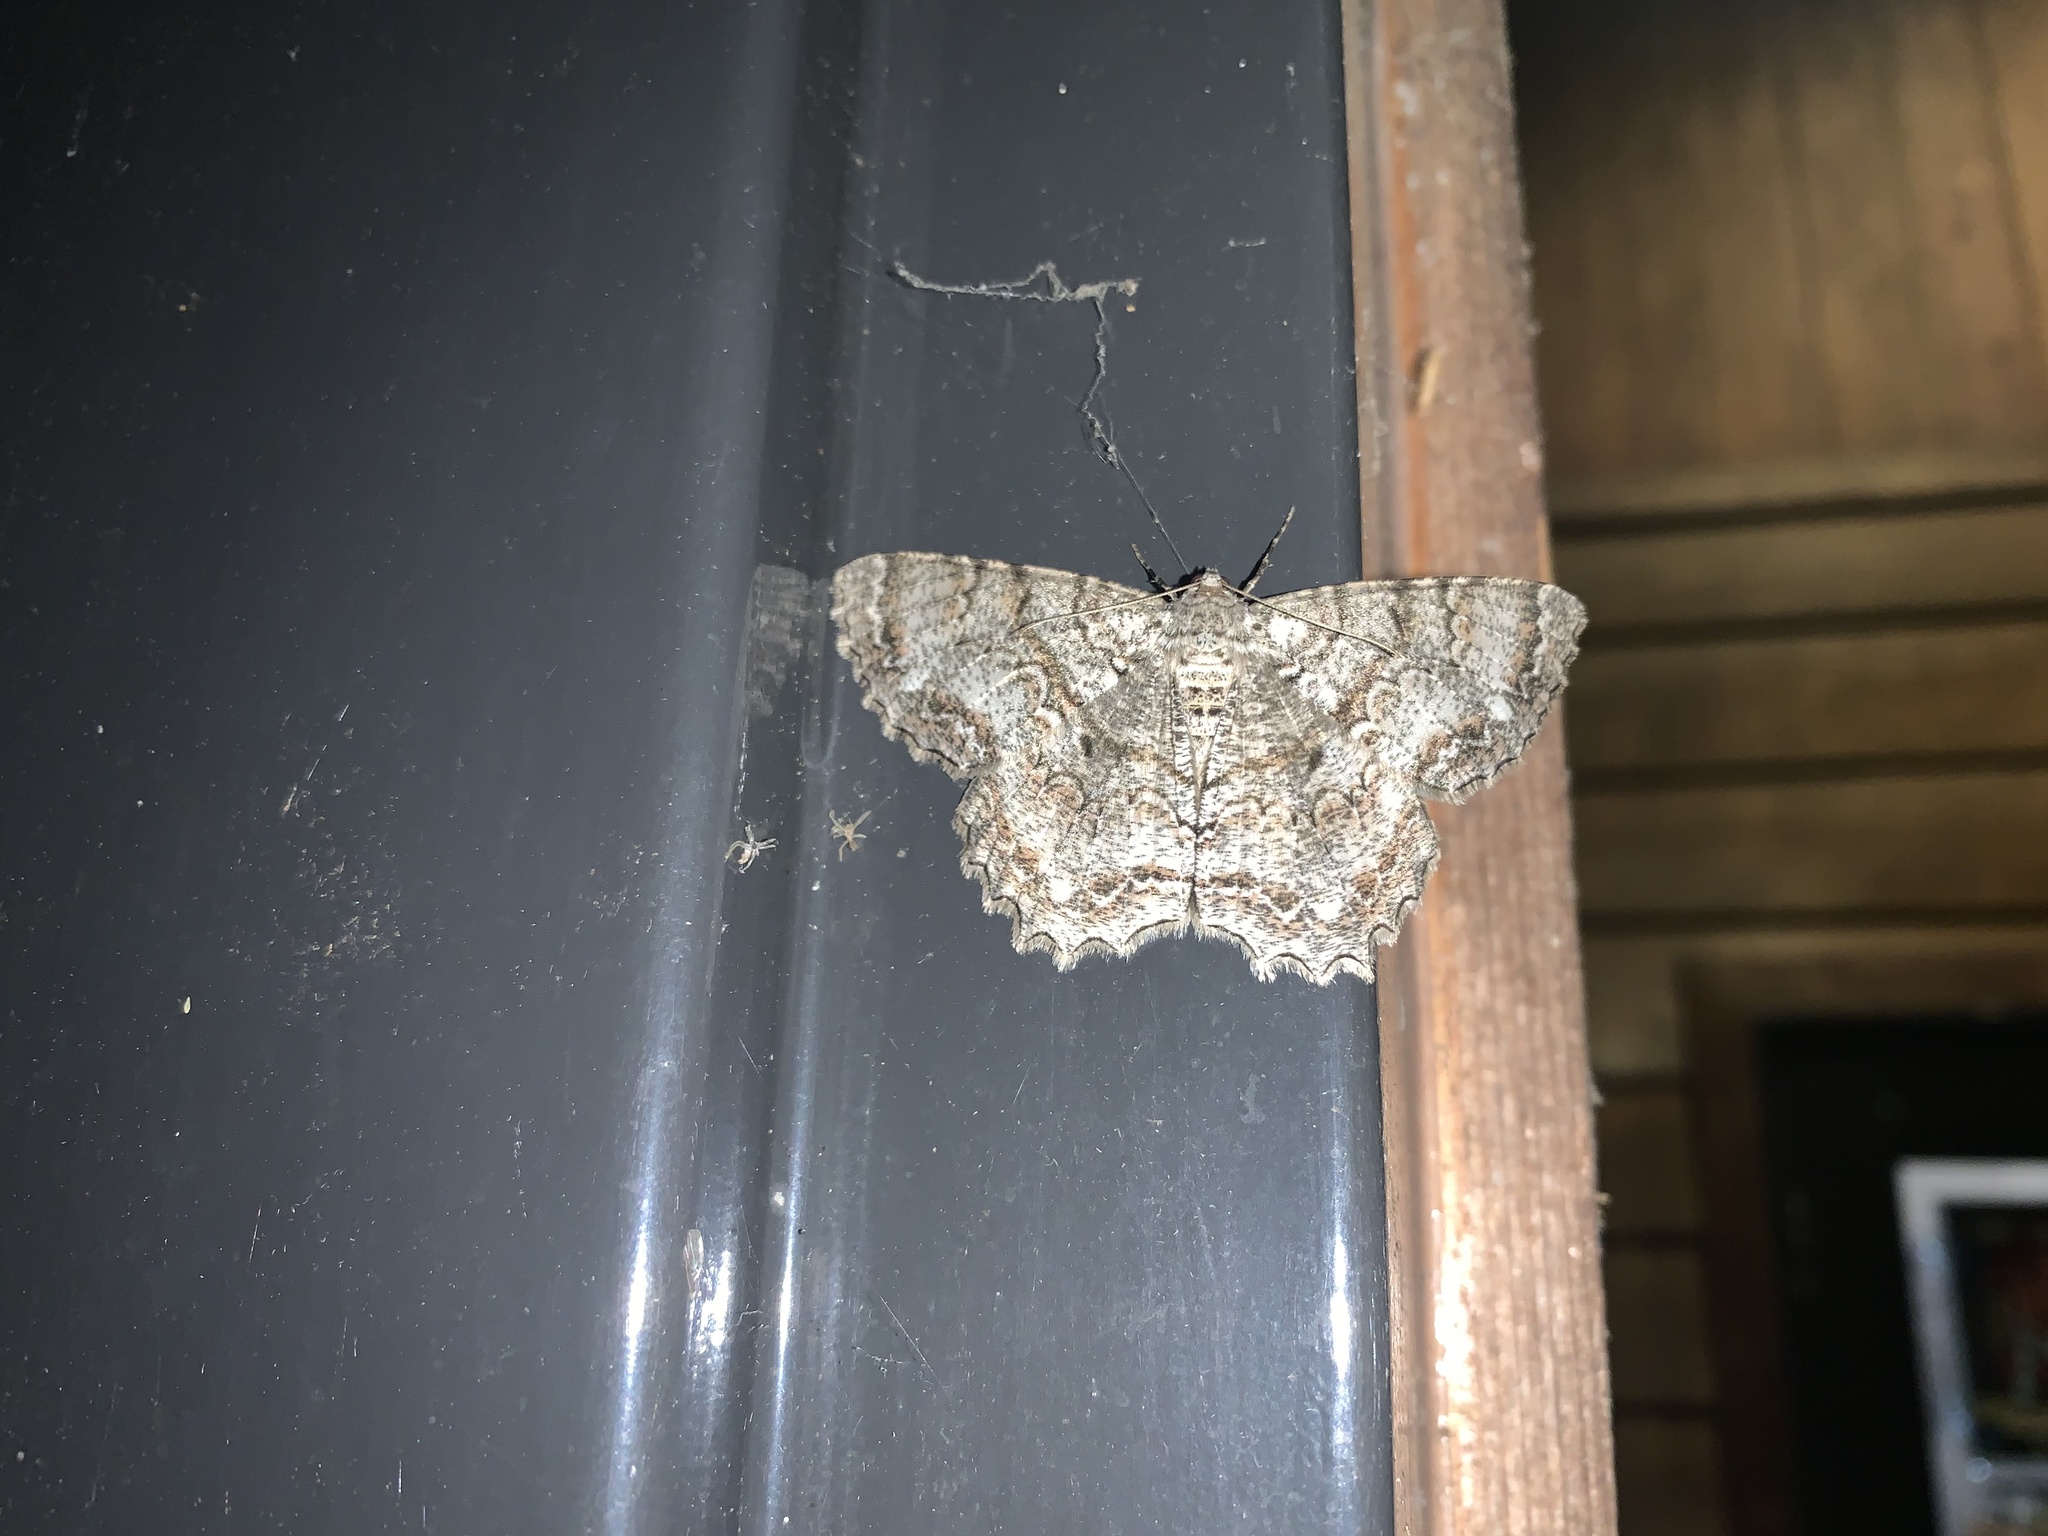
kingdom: Animalia
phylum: Arthropoda
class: Insecta
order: Lepidoptera
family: Geometridae
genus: Epimecis
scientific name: Epimecis hortaria
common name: Tulip-tree beauty
